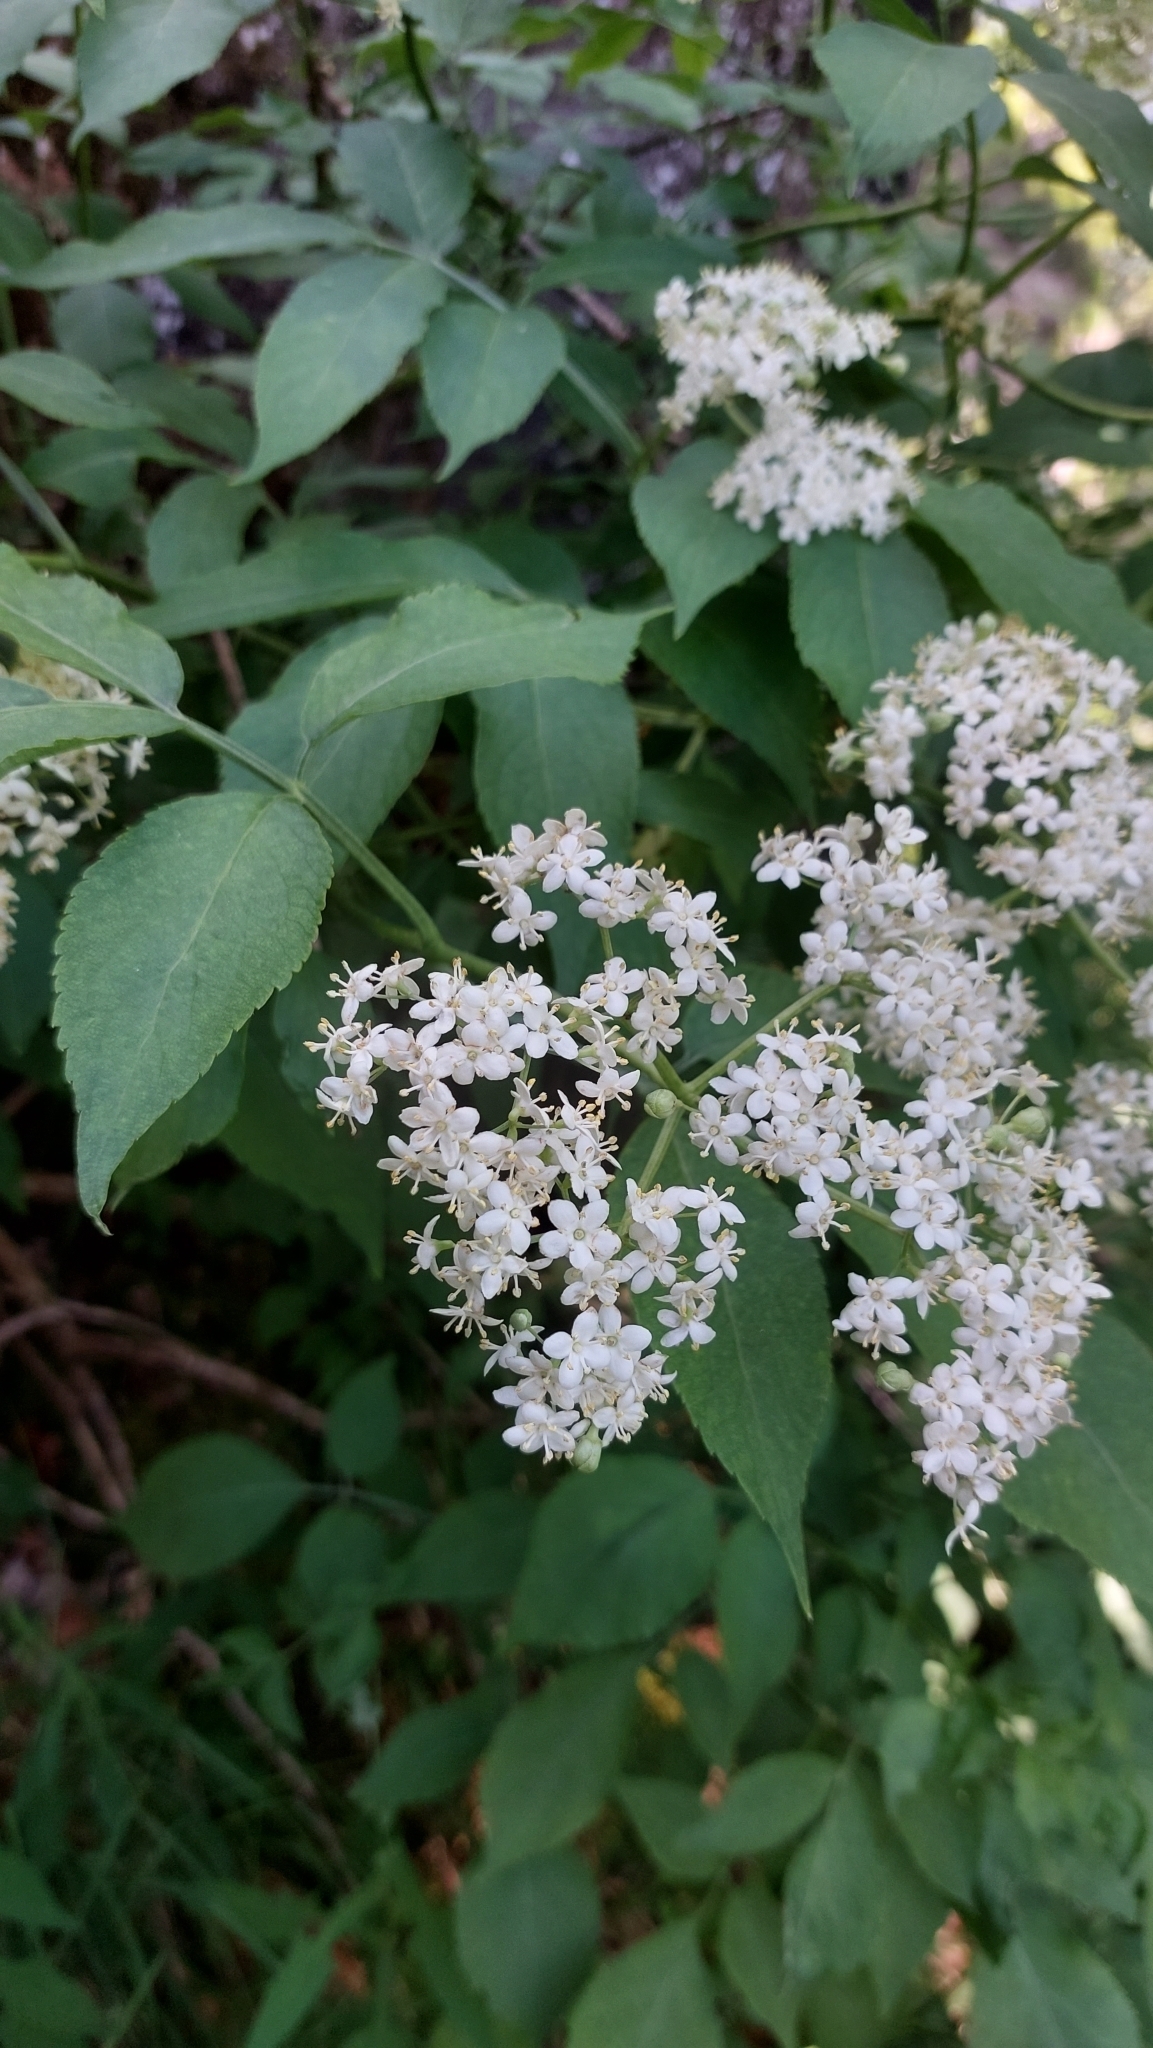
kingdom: Plantae
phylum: Tracheophyta
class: Magnoliopsida
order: Dipsacales
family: Viburnaceae
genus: Sambucus
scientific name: Sambucus nigra
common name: Elder
